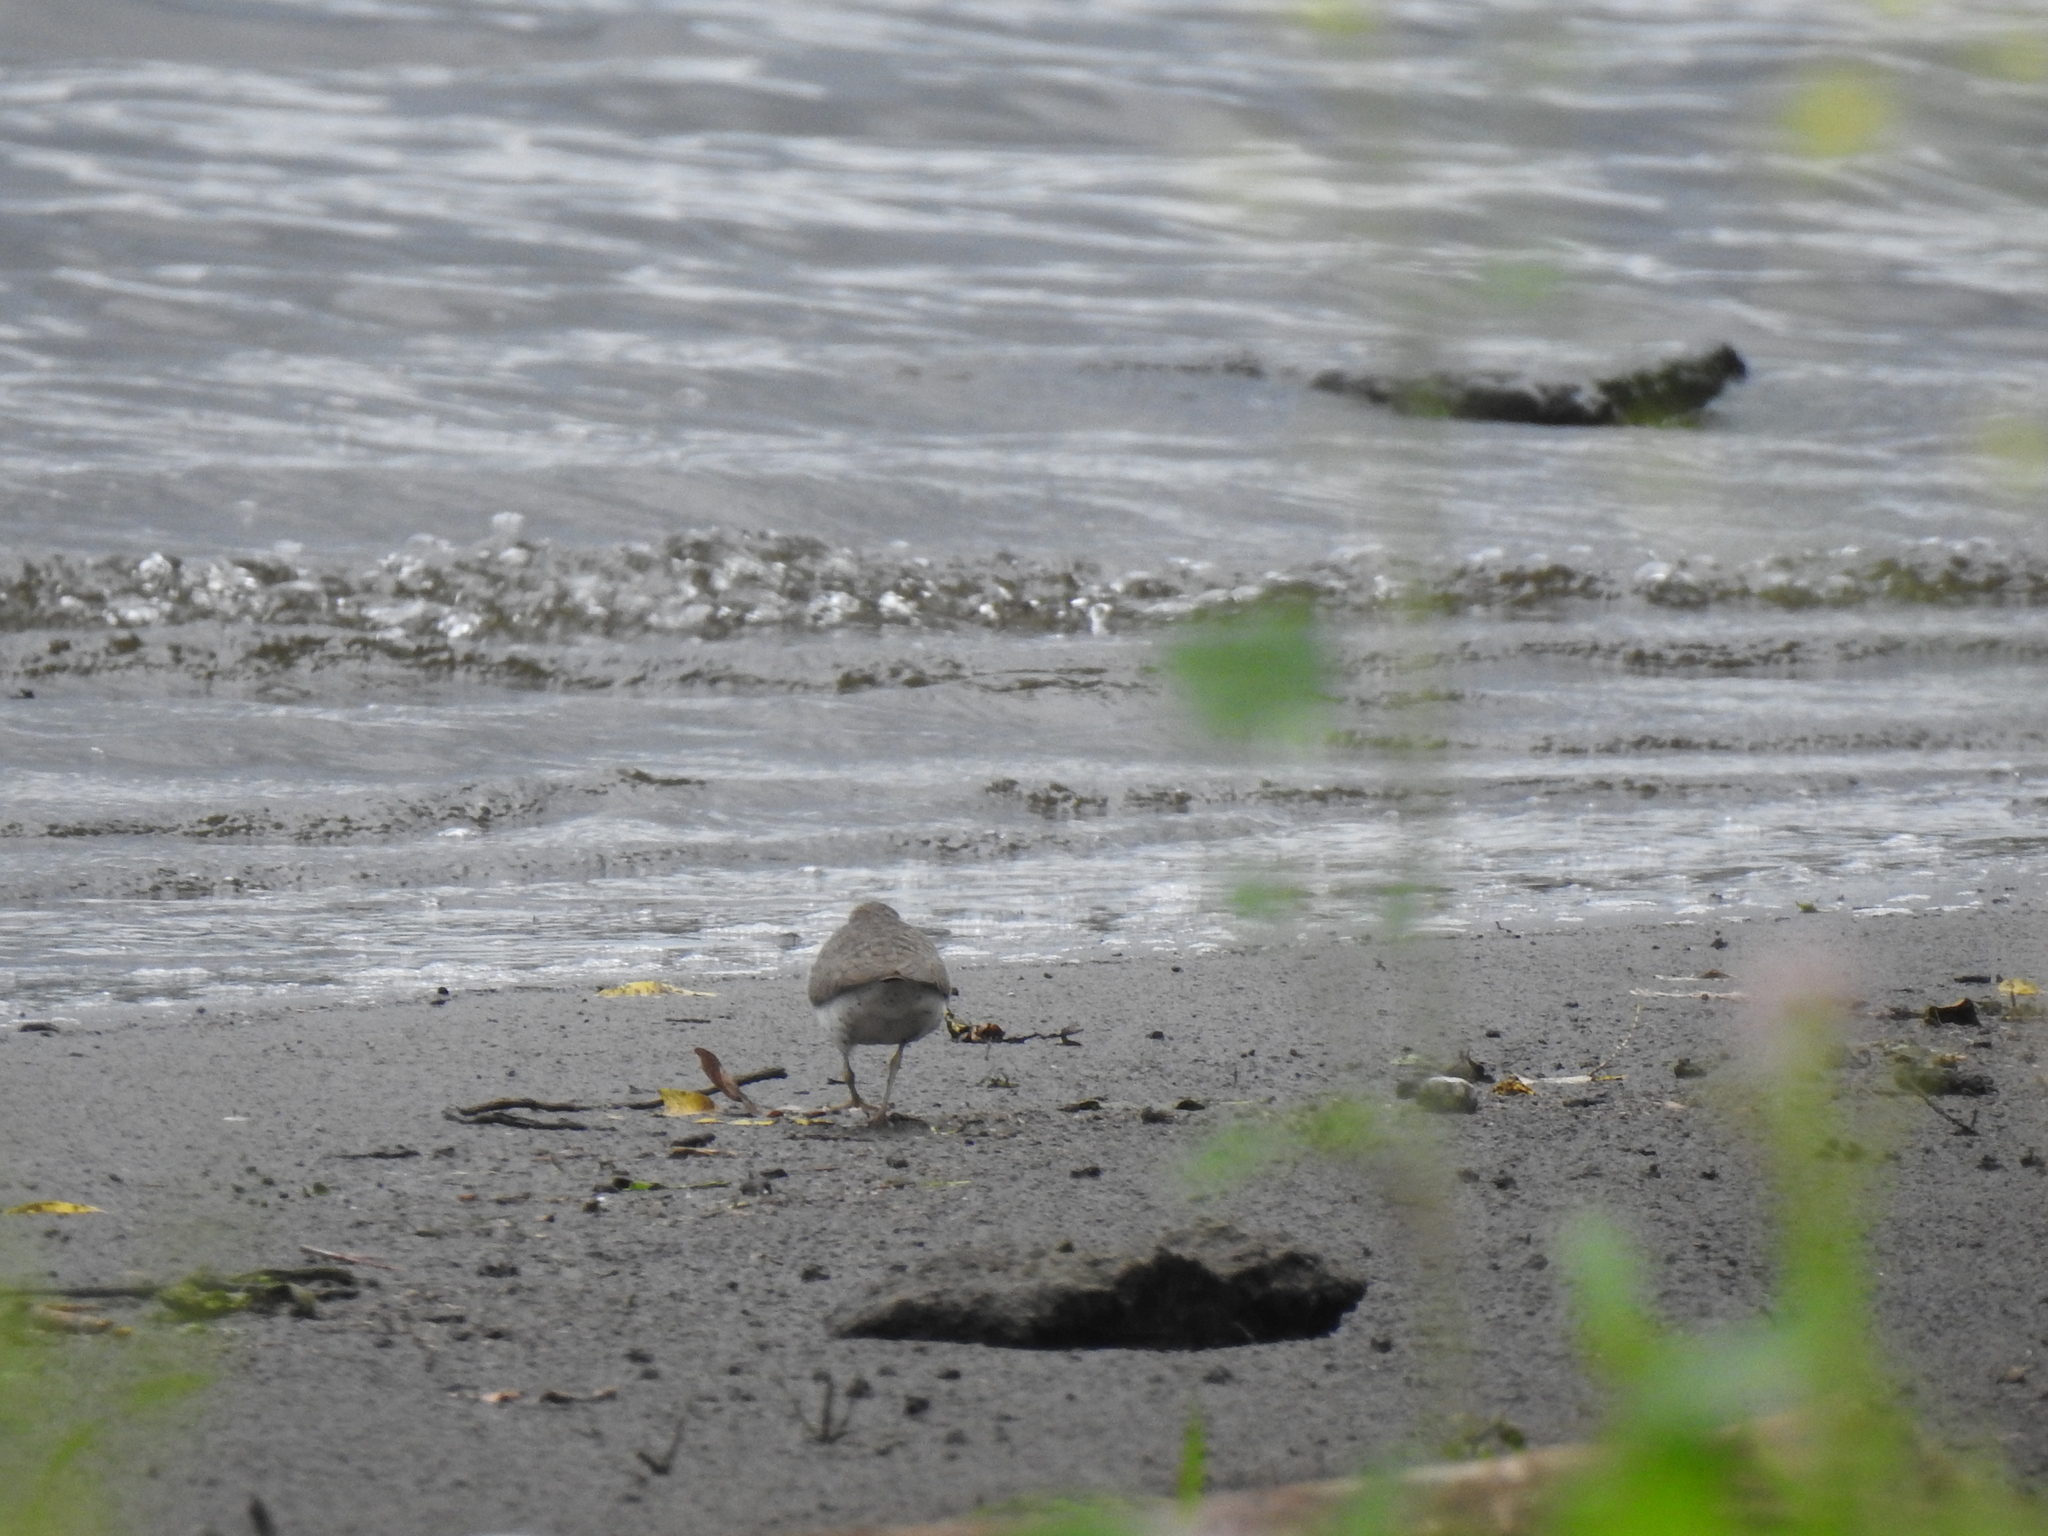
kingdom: Animalia
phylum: Chordata
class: Aves
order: Charadriiformes
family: Scolopacidae
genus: Actitis
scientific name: Actitis macularius
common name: Spotted sandpiper
